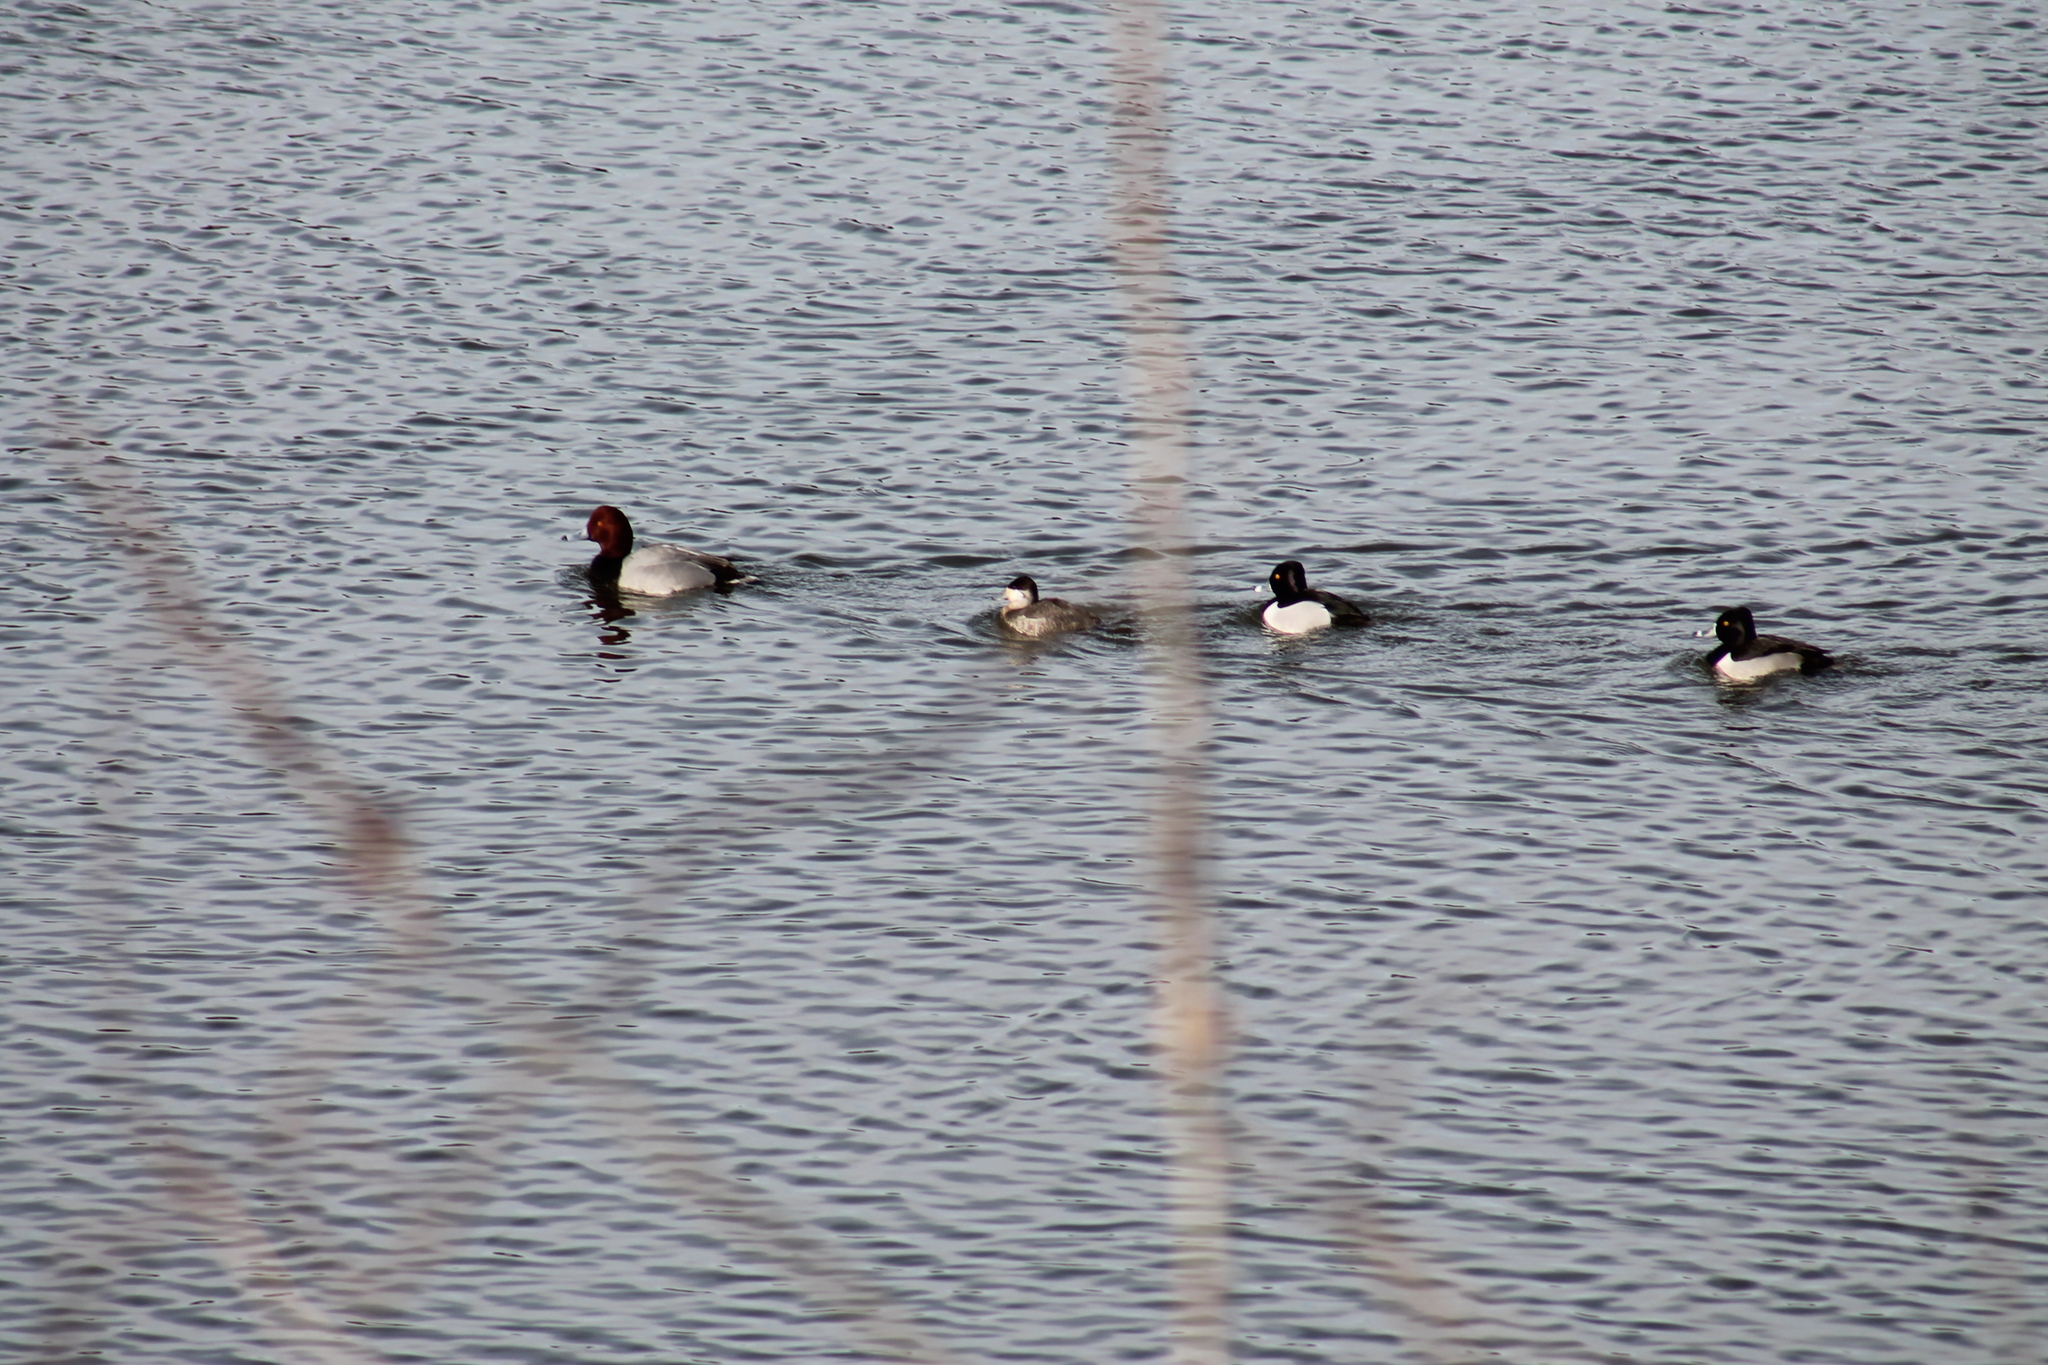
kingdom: Animalia
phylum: Chordata
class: Aves
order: Anseriformes
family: Anatidae
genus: Aythya
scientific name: Aythya collaris
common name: Ring-necked duck
